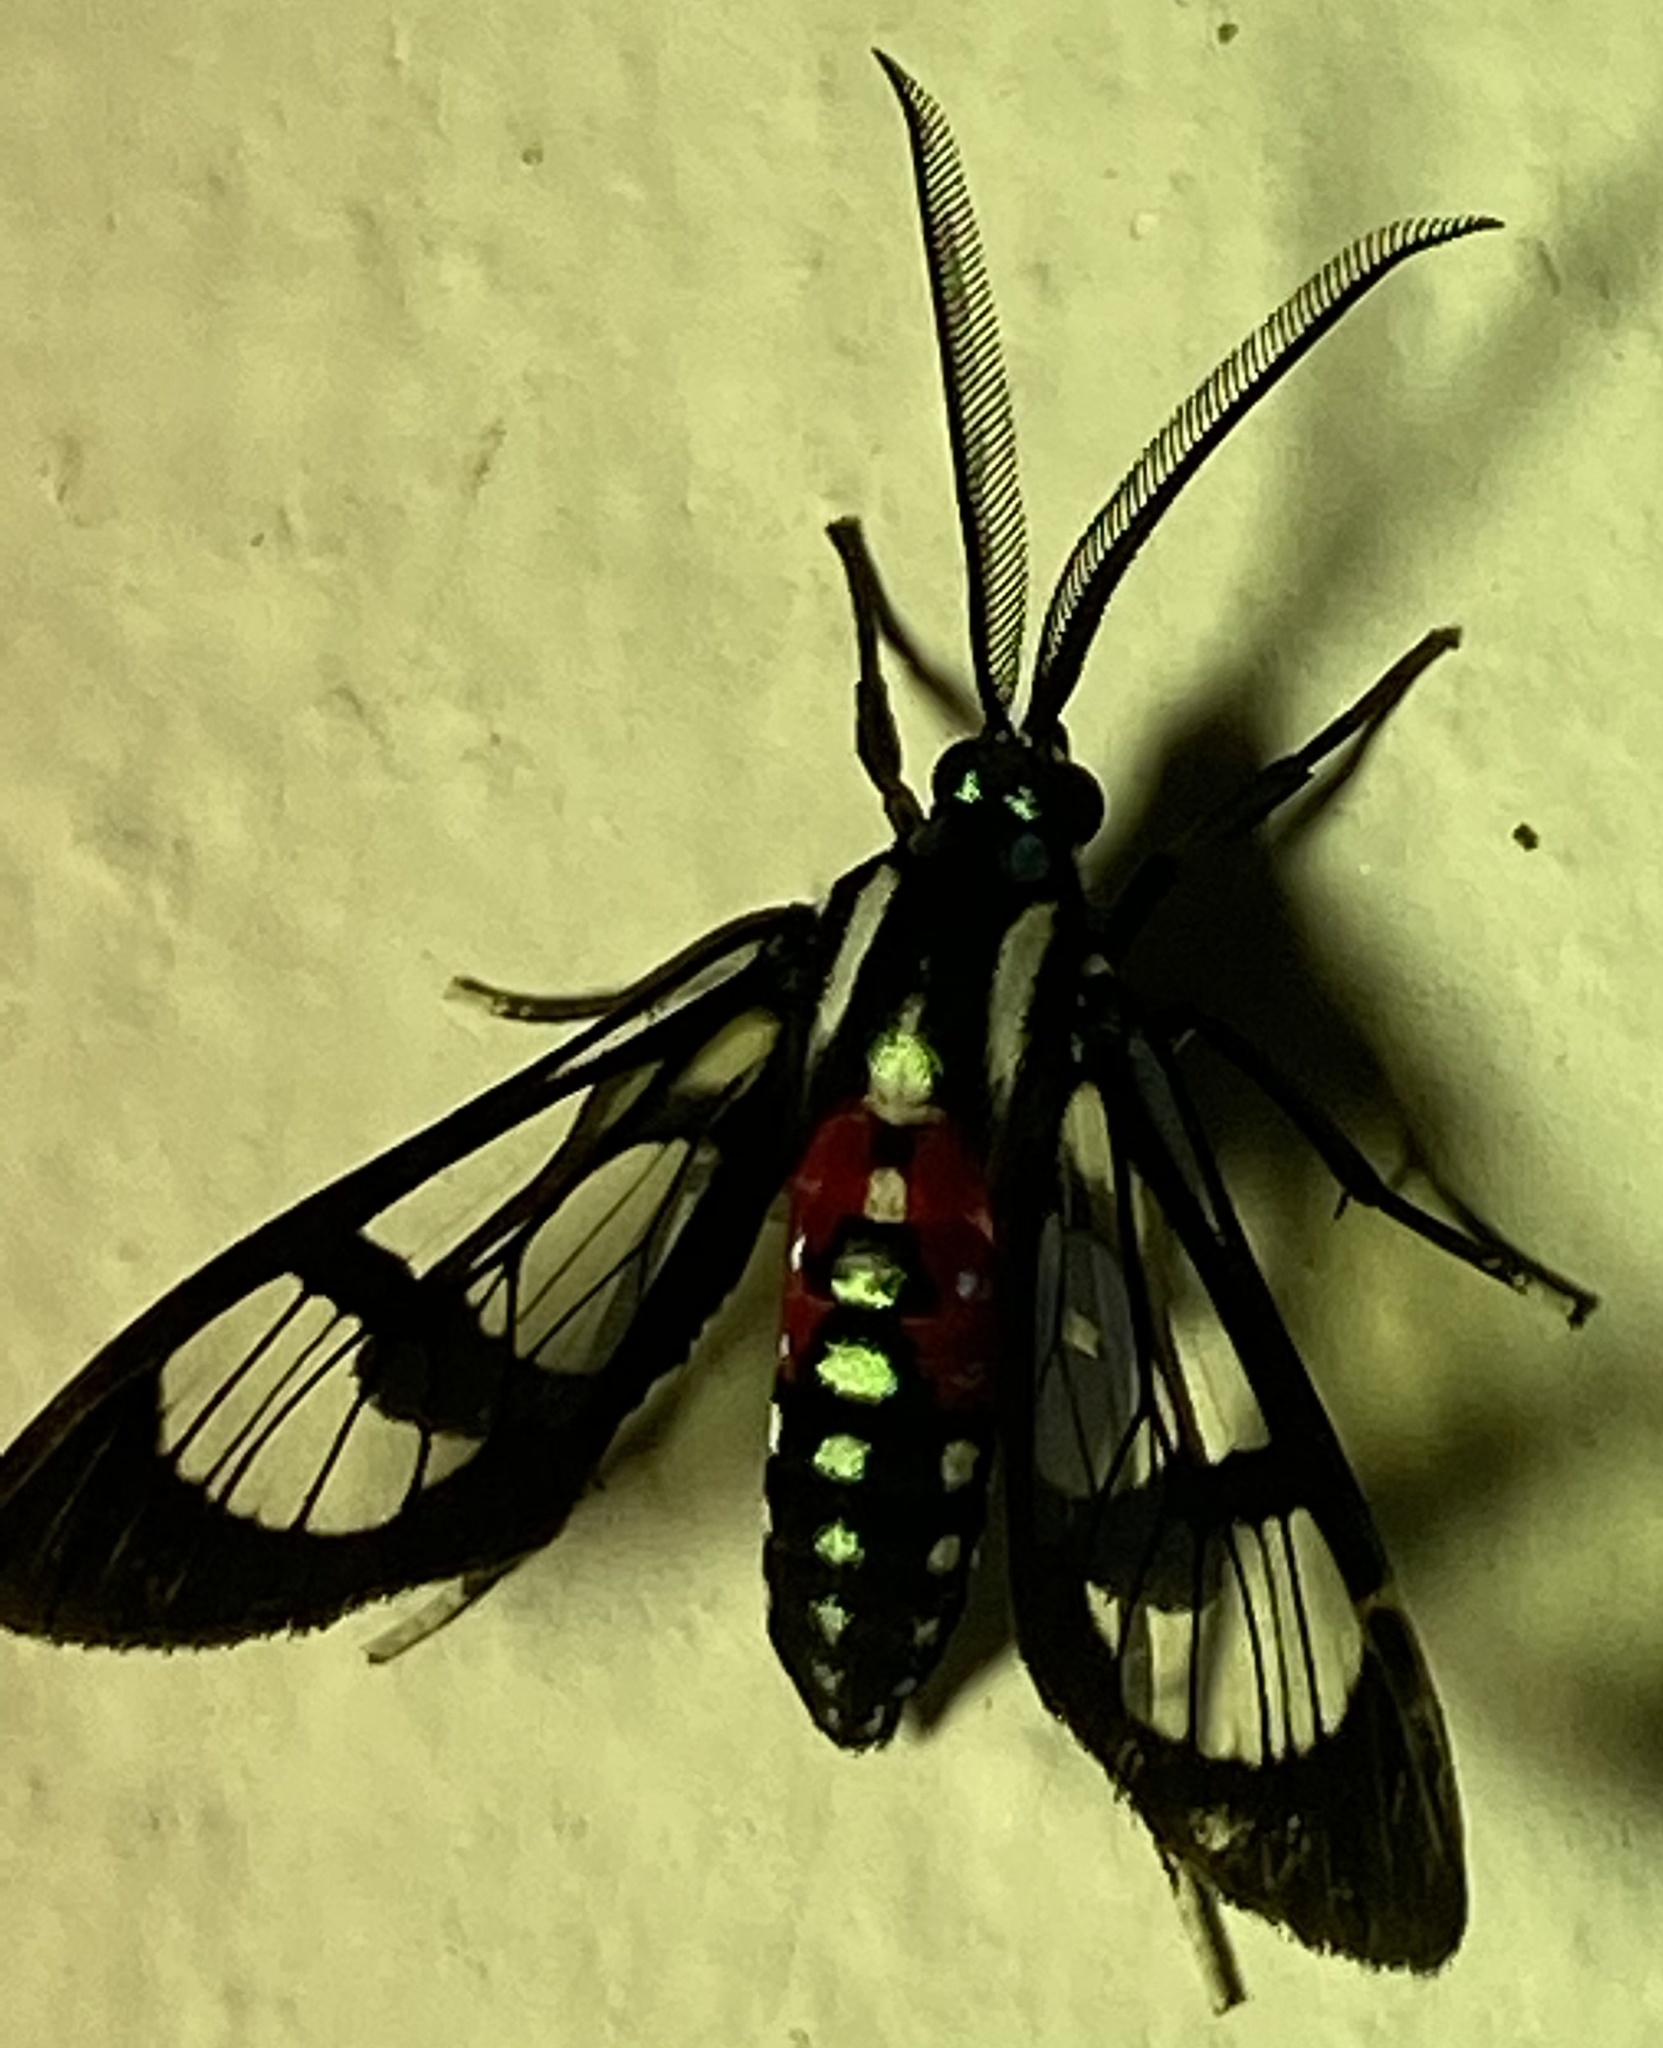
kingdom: Animalia
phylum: Arthropoda
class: Insecta
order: Lepidoptera
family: Erebidae
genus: Poecilosoma
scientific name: Poecilosoma eone
